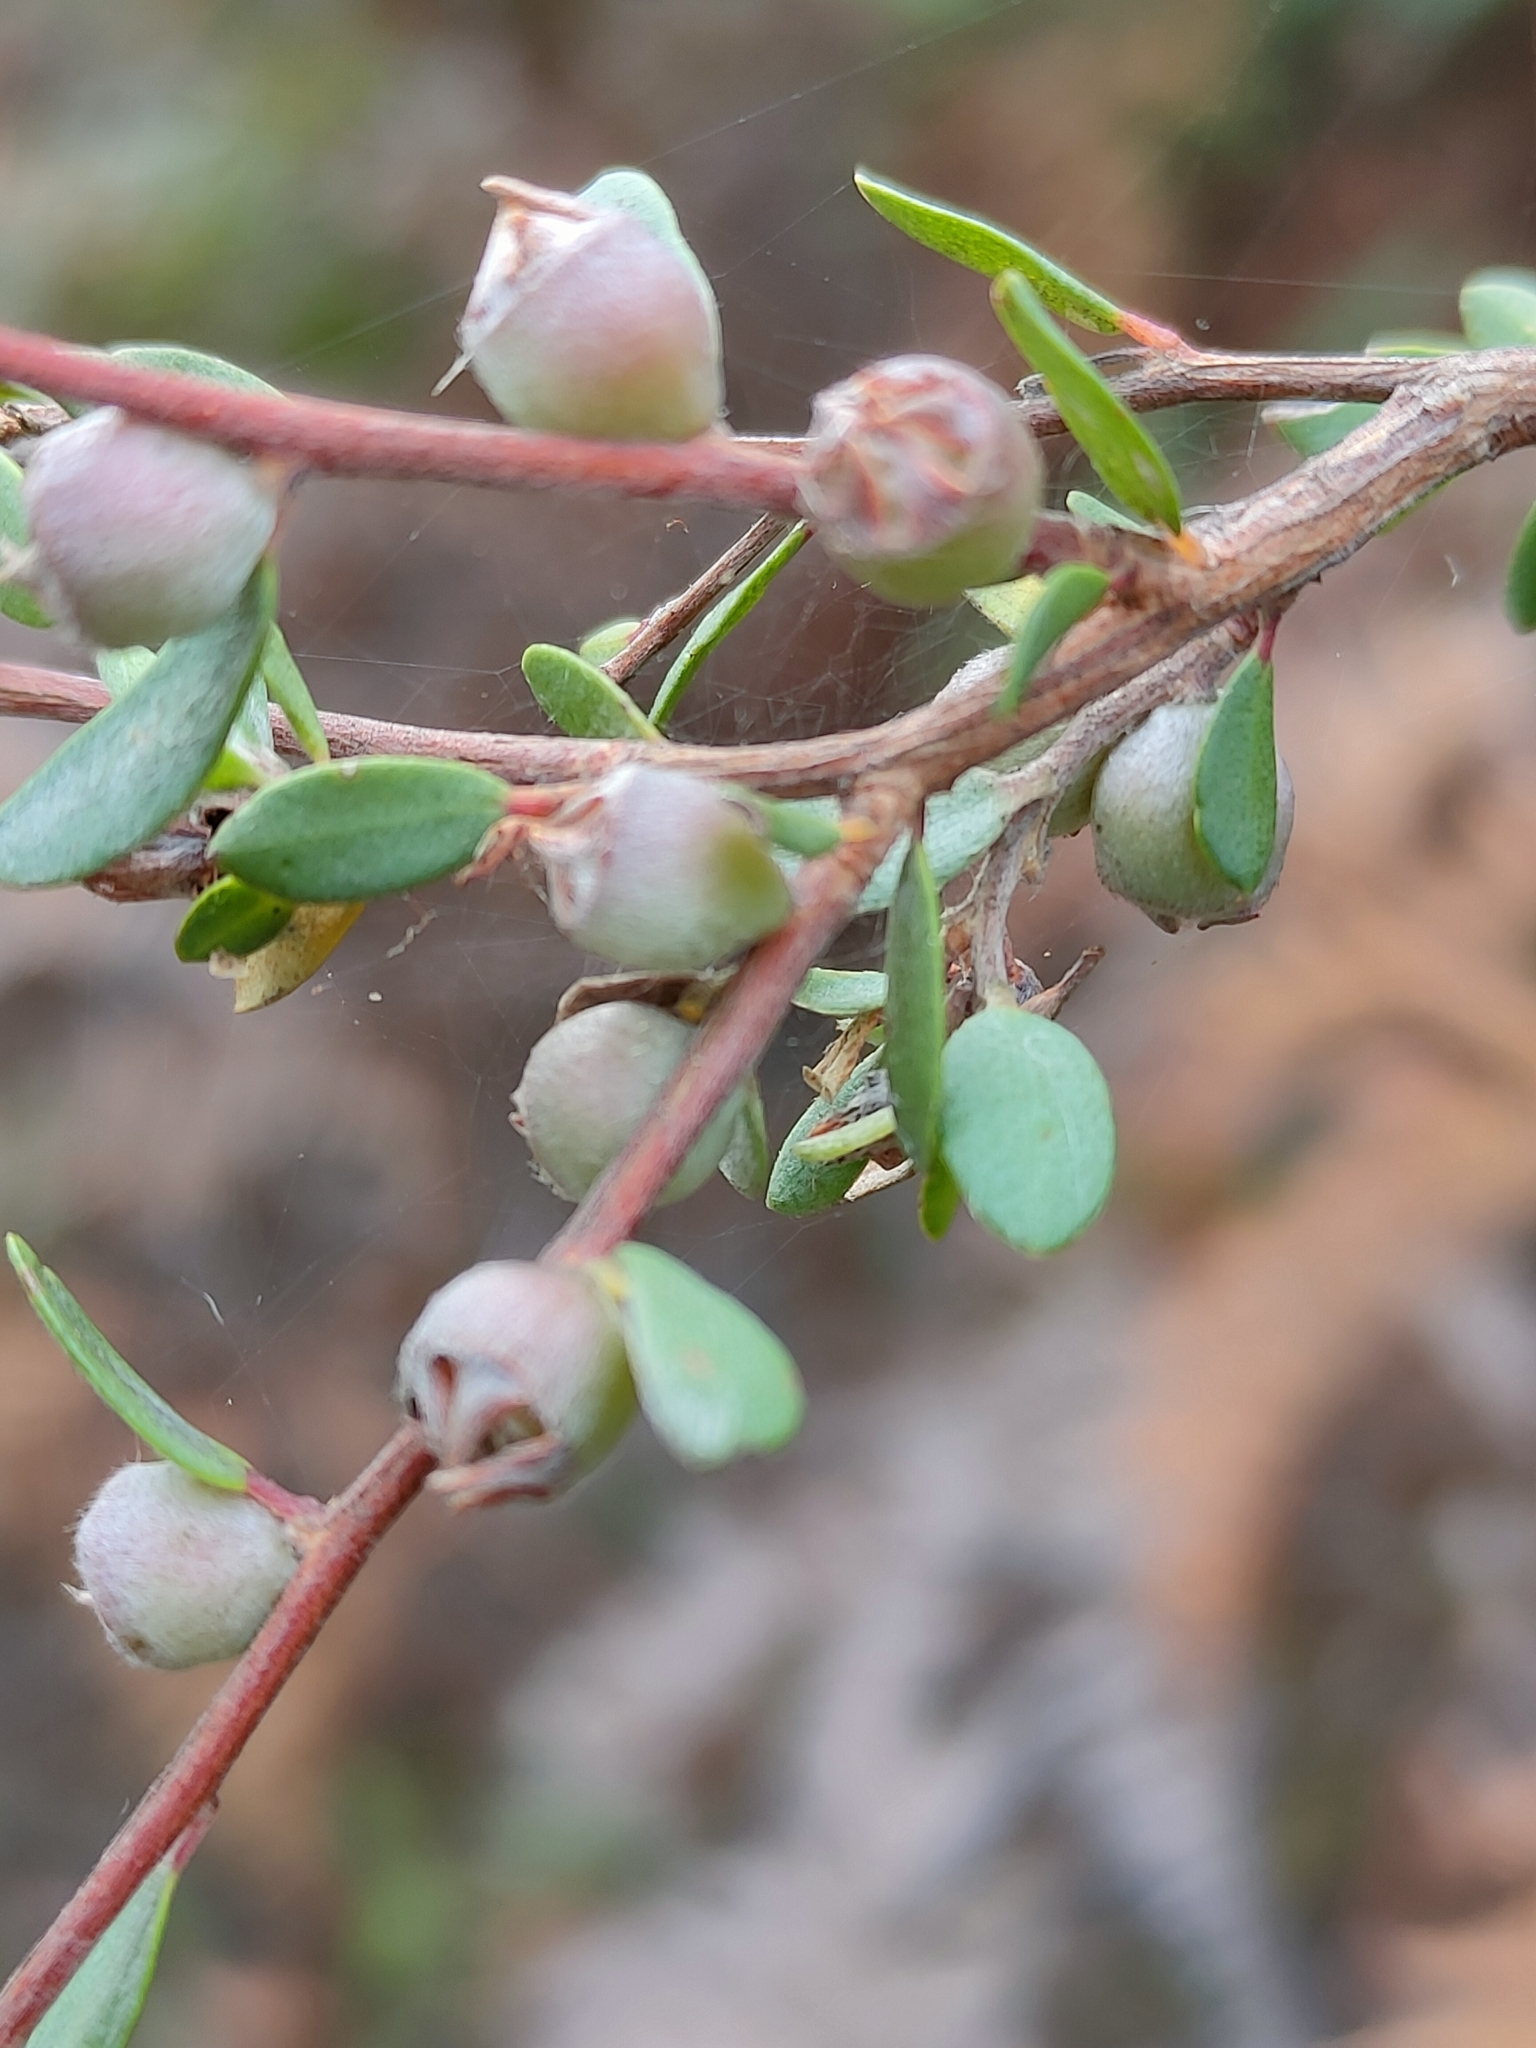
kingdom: Plantae
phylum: Tracheophyta
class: Magnoliopsida
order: Myrtales
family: Myrtaceae
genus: Leptospermum
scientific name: Leptospermum glaucescens
